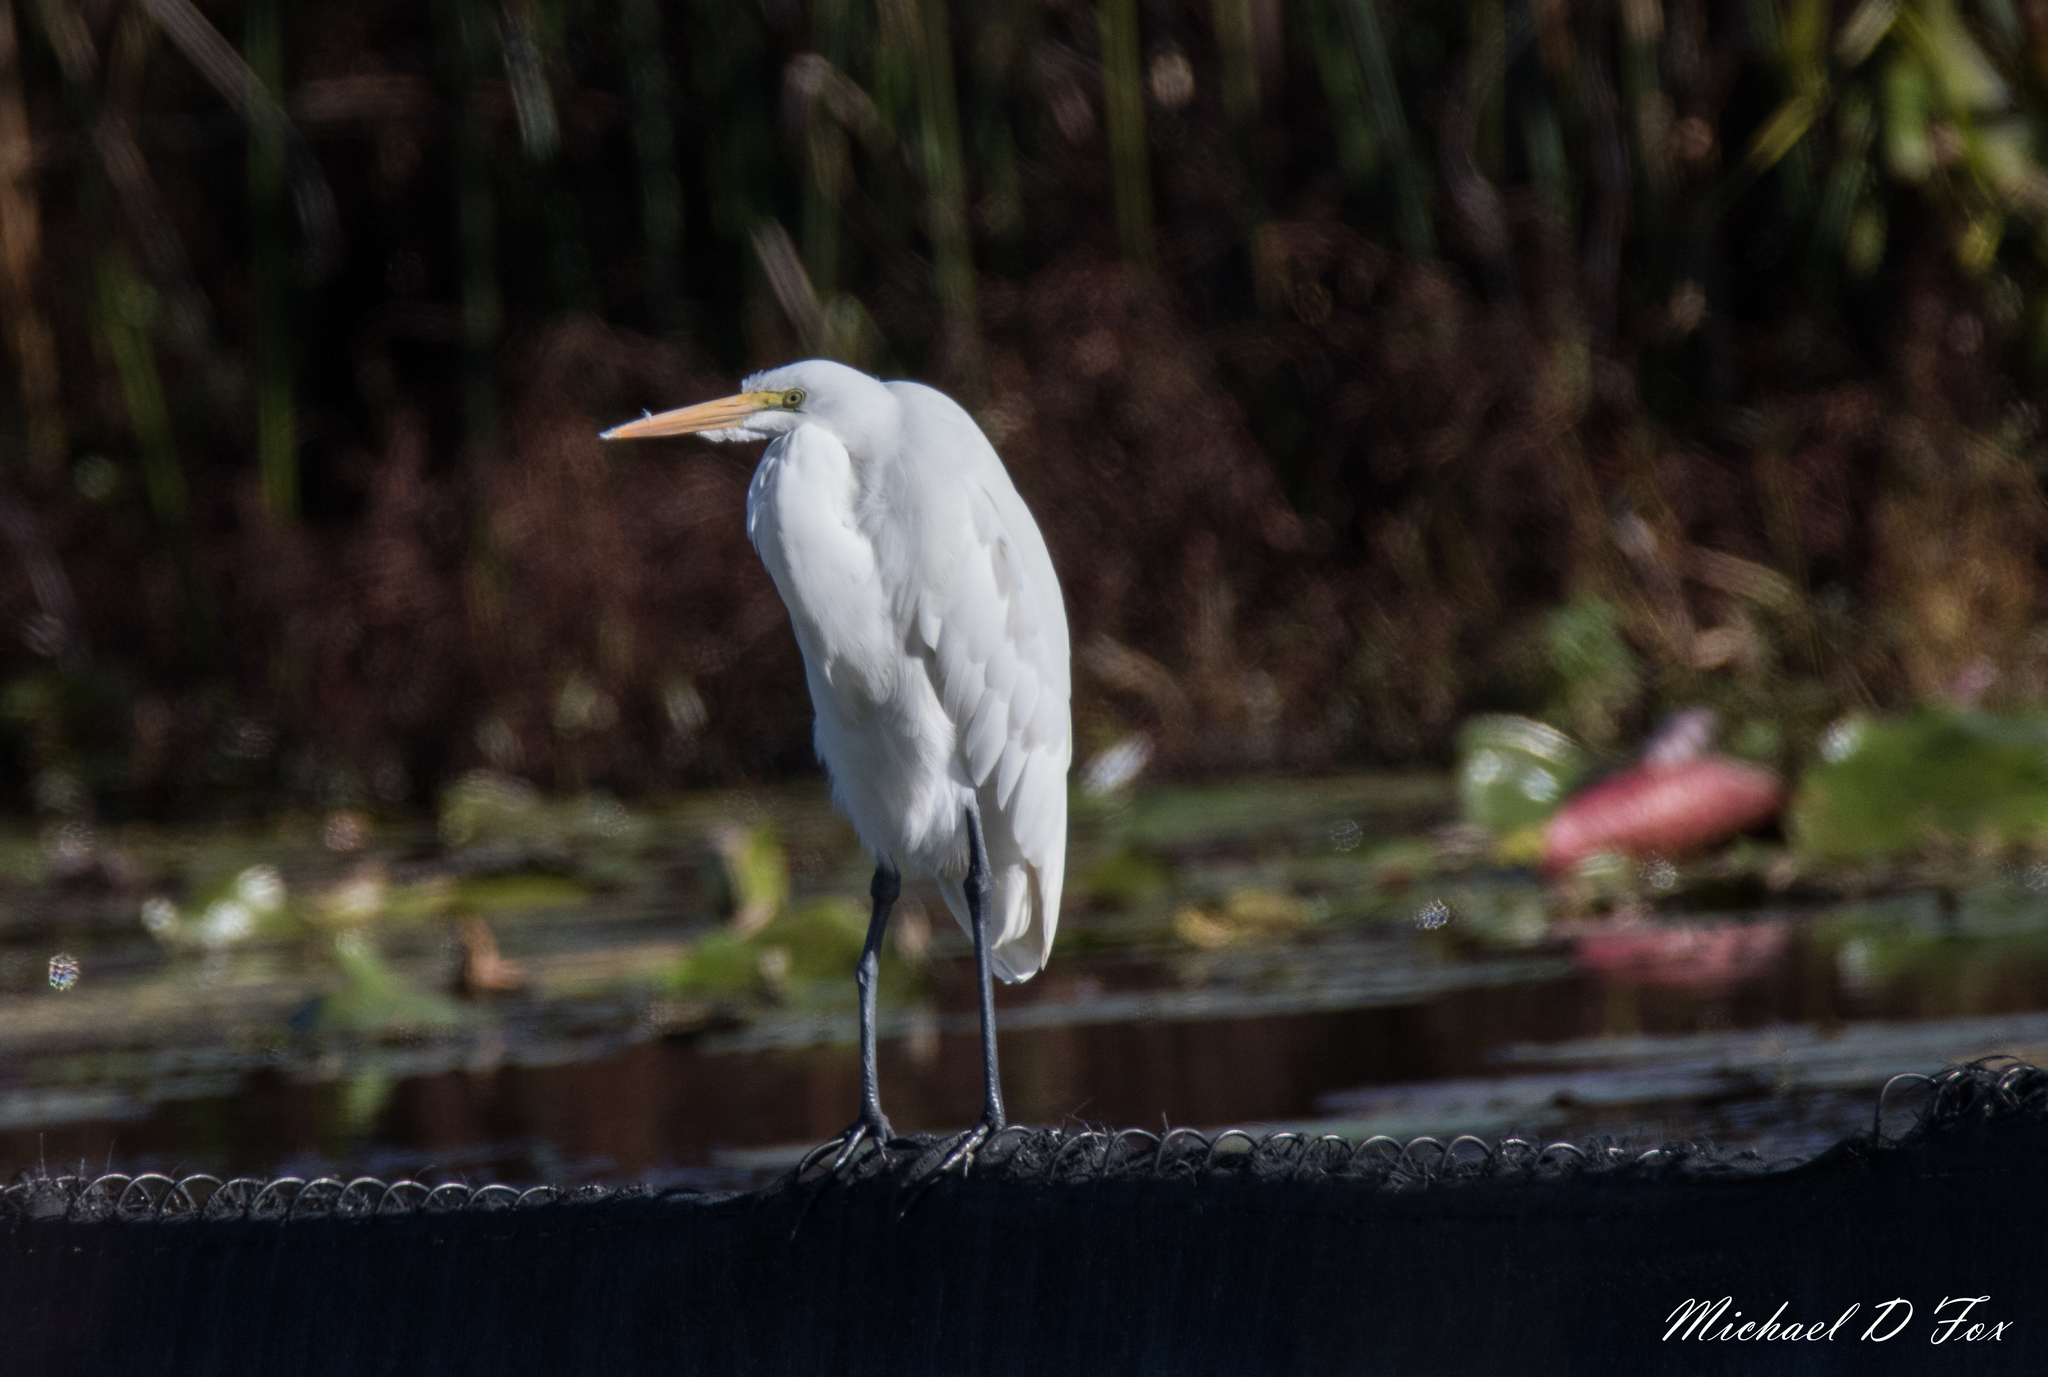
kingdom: Animalia
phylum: Chordata
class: Aves
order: Pelecaniformes
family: Ardeidae
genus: Ardea
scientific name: Ardea alba
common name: Great egret
